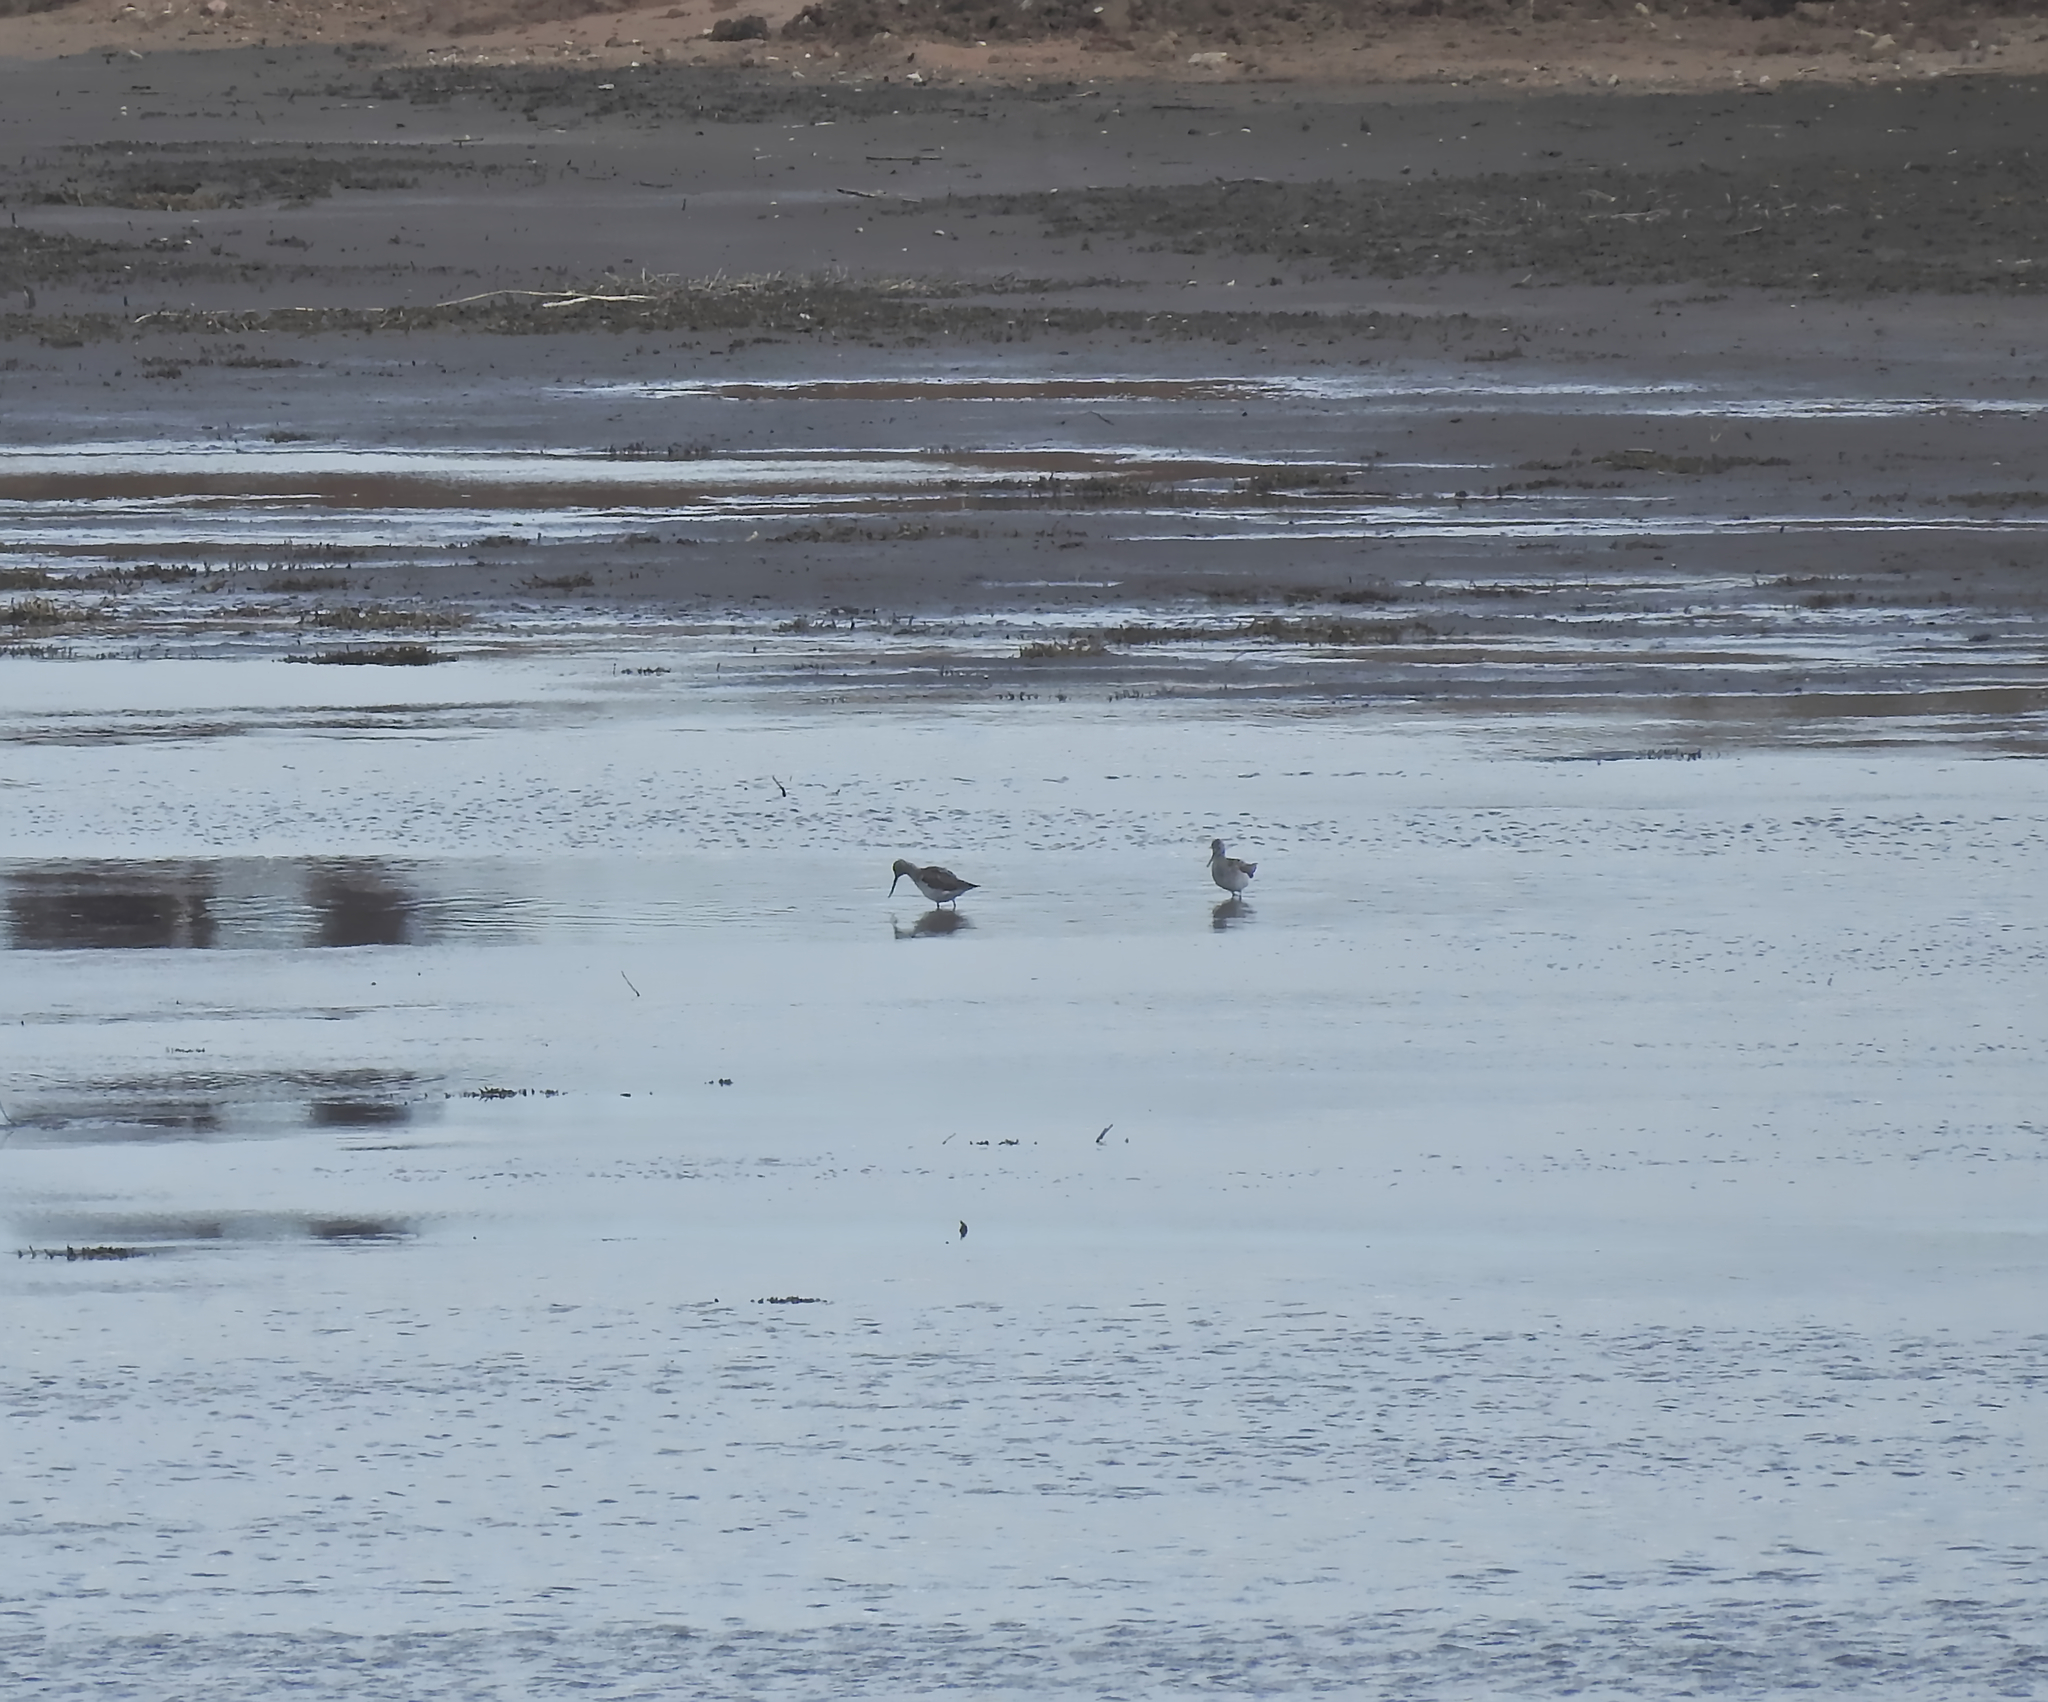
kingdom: Animalia
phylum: Chordata
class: Aves
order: Charadriiformes
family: Scolopacidae
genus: Tringa
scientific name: Tringa nebularia
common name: Common greenshank
